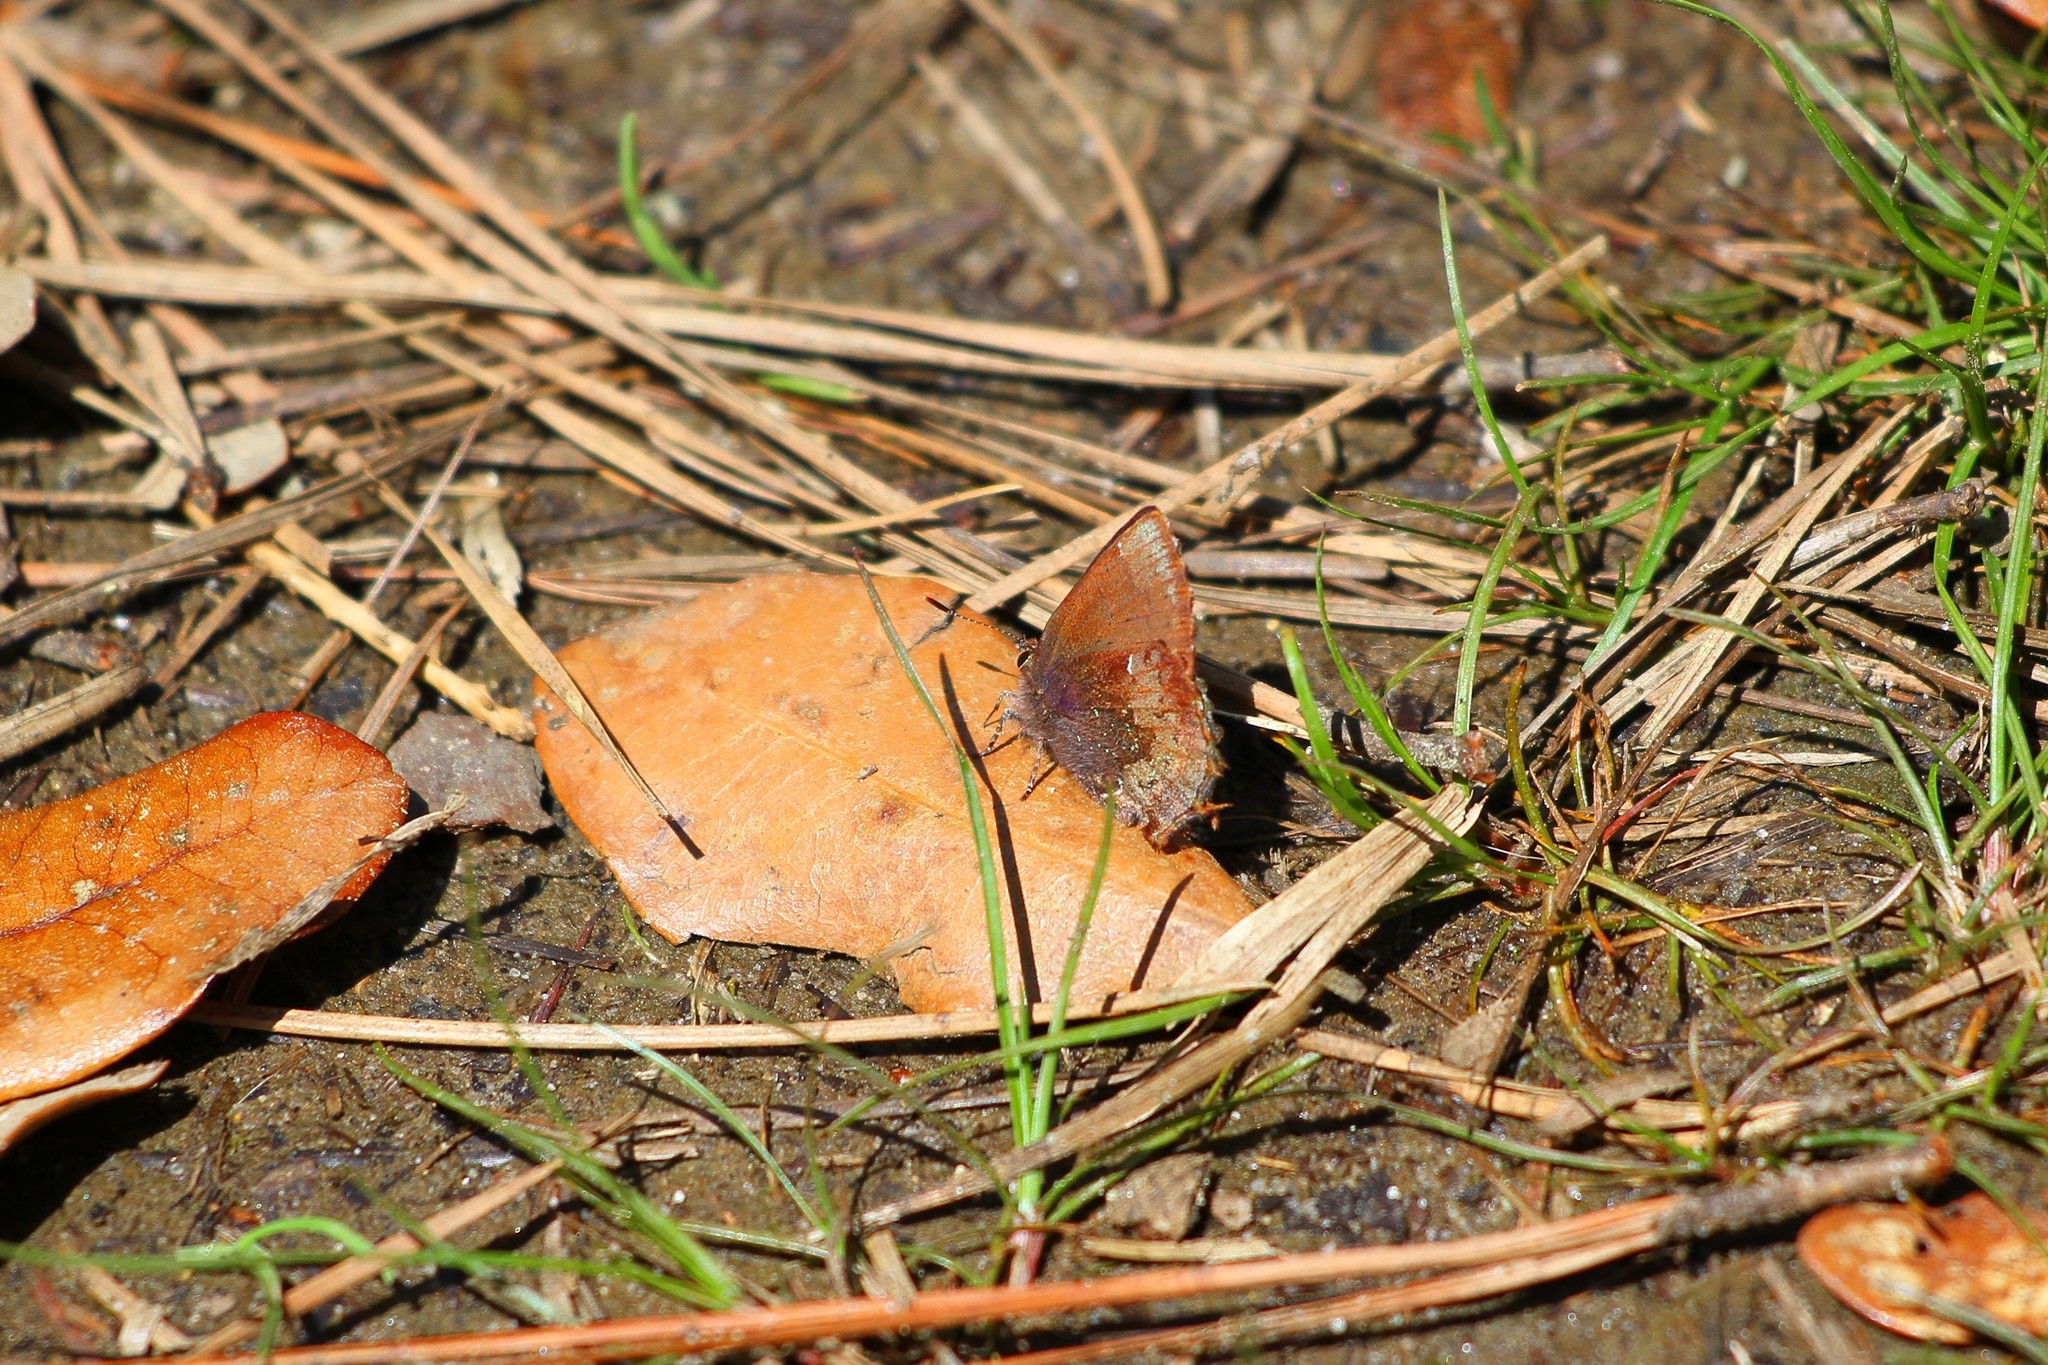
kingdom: Animalia
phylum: Arthropoda
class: Insecta
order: Lepidoptera
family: Lycaenidae
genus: Incisalia
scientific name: Incisalia henrici
